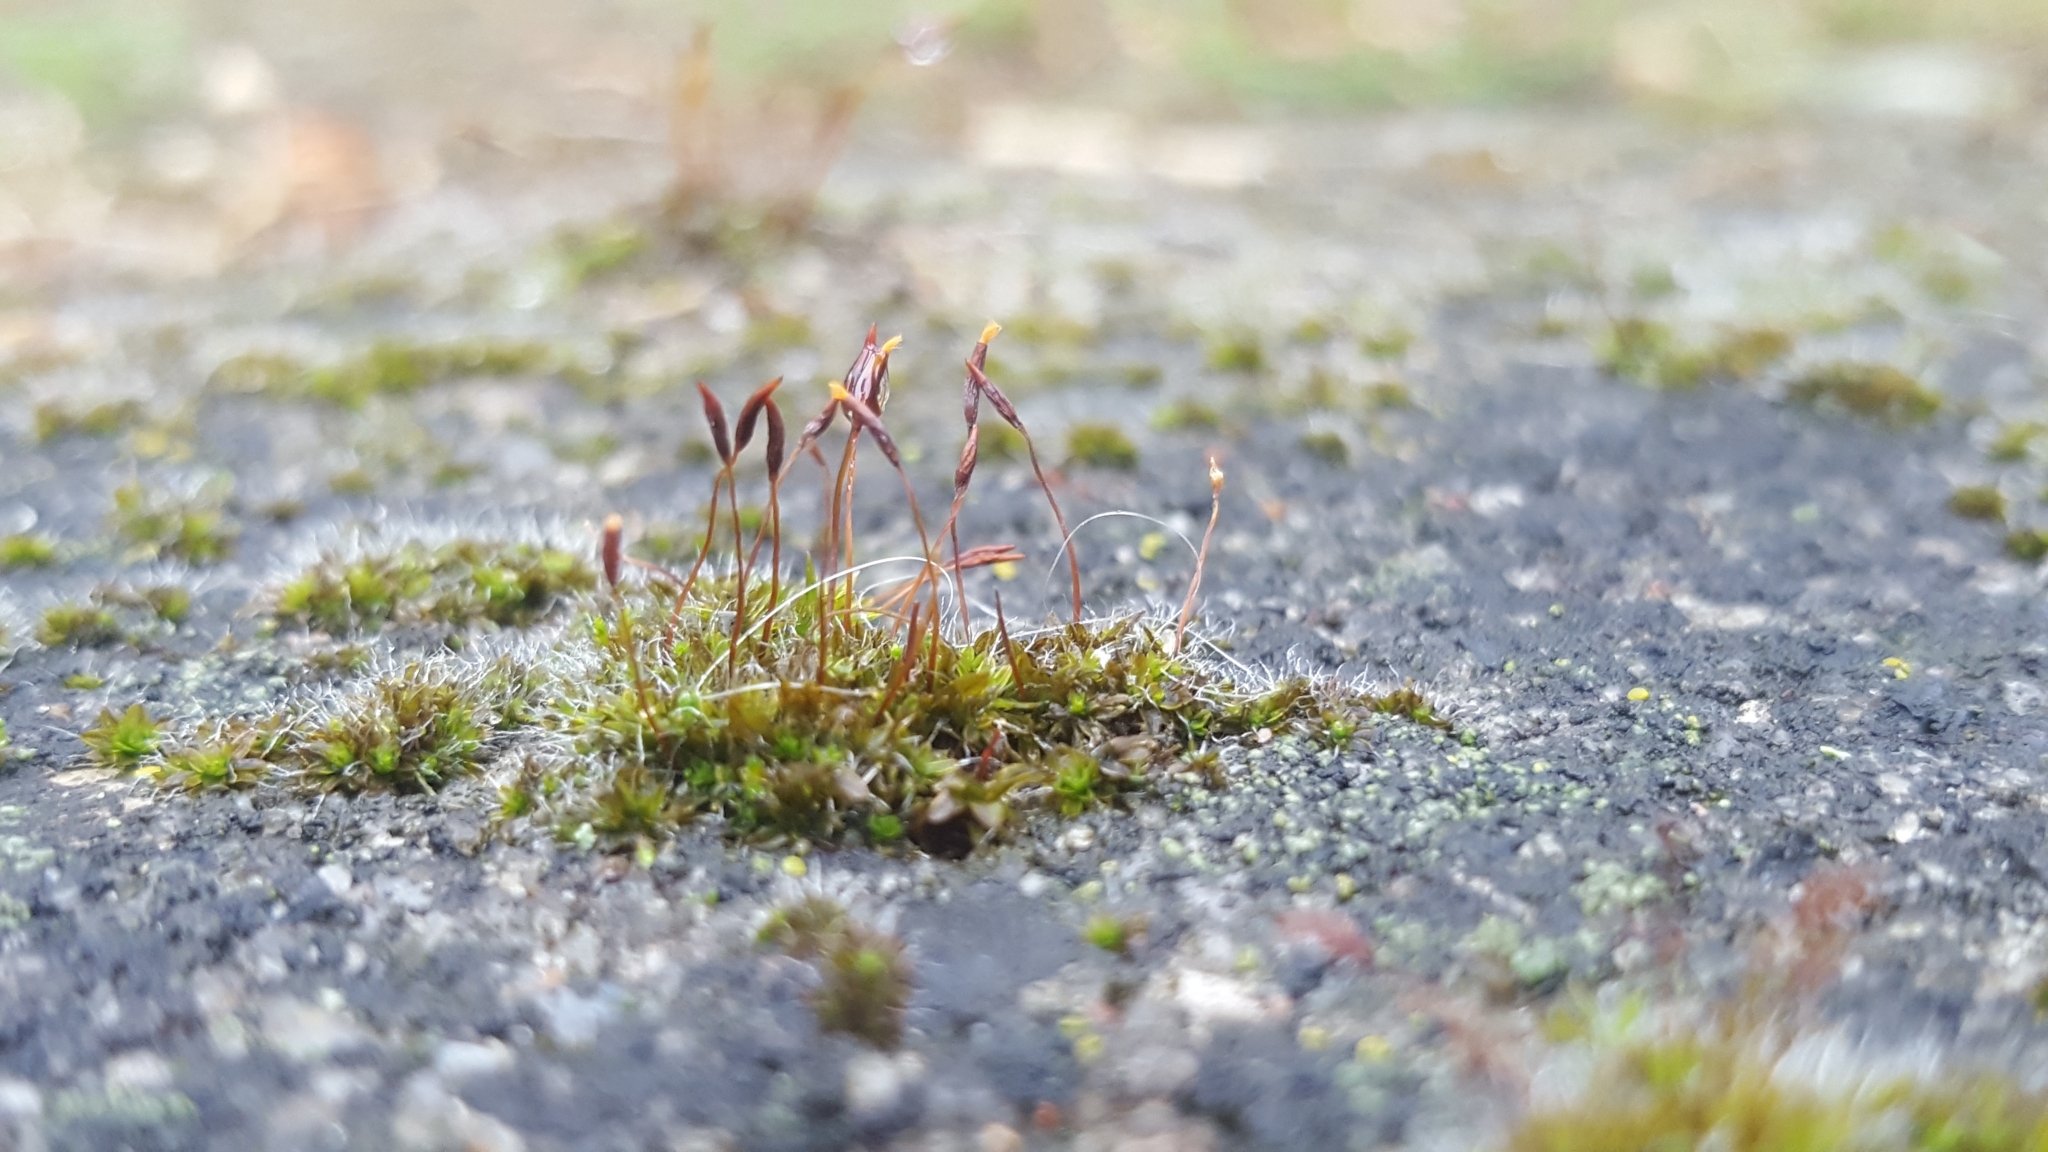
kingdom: Plantae
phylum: Bryophyta
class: Bryopsida
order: Pottiales
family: Pottiaceae
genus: Tortula
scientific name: Tortula muralis
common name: Wall screw-moss
